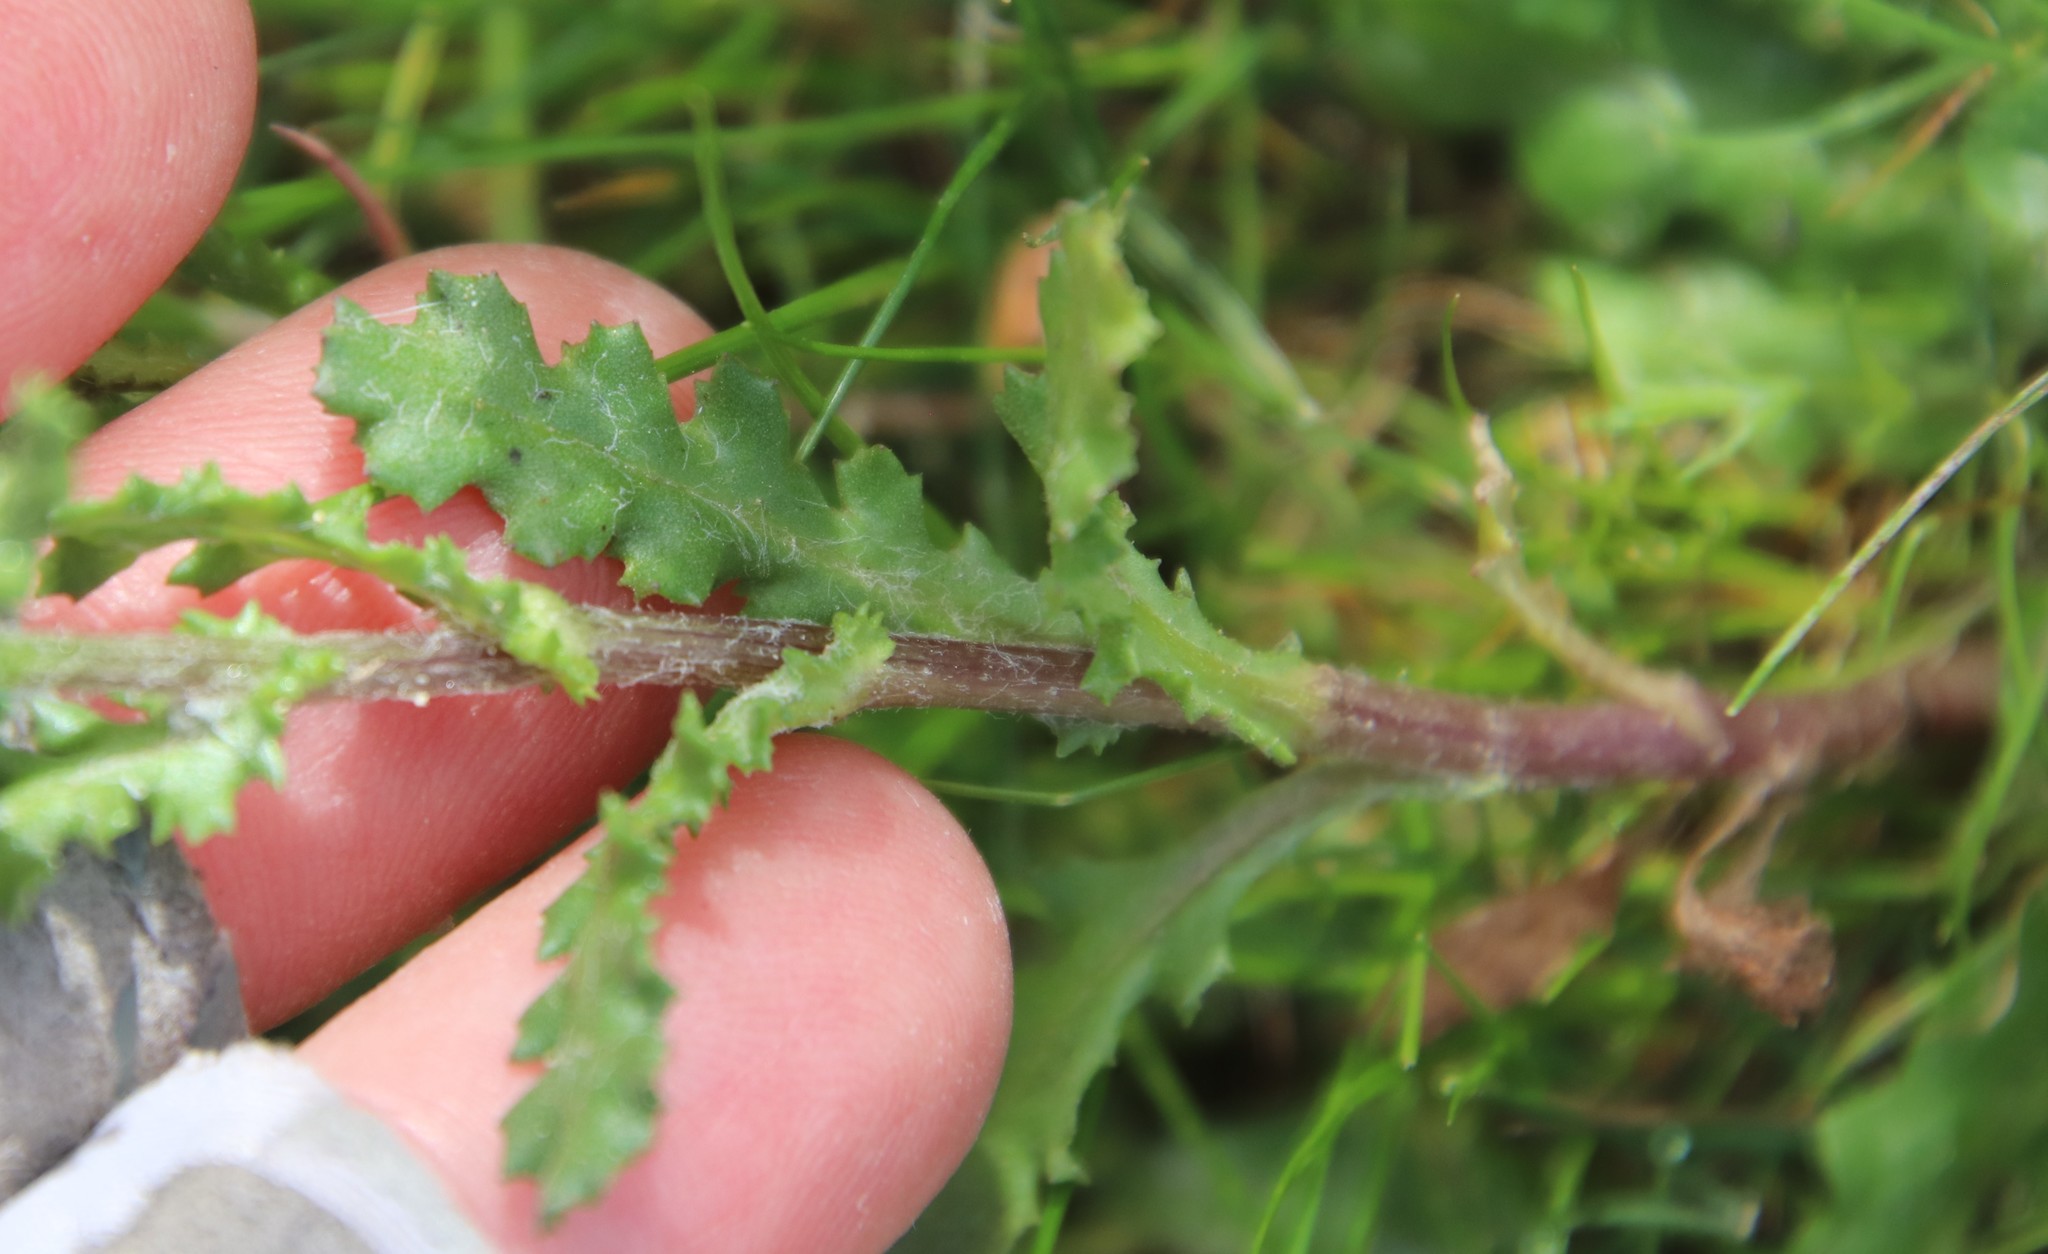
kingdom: Plantae
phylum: Tracheophyta
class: Magnoliopsida
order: Asterales
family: Asteraceae
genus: Senecio
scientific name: Senecio vulgaris
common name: Old-man-in-the-spring
